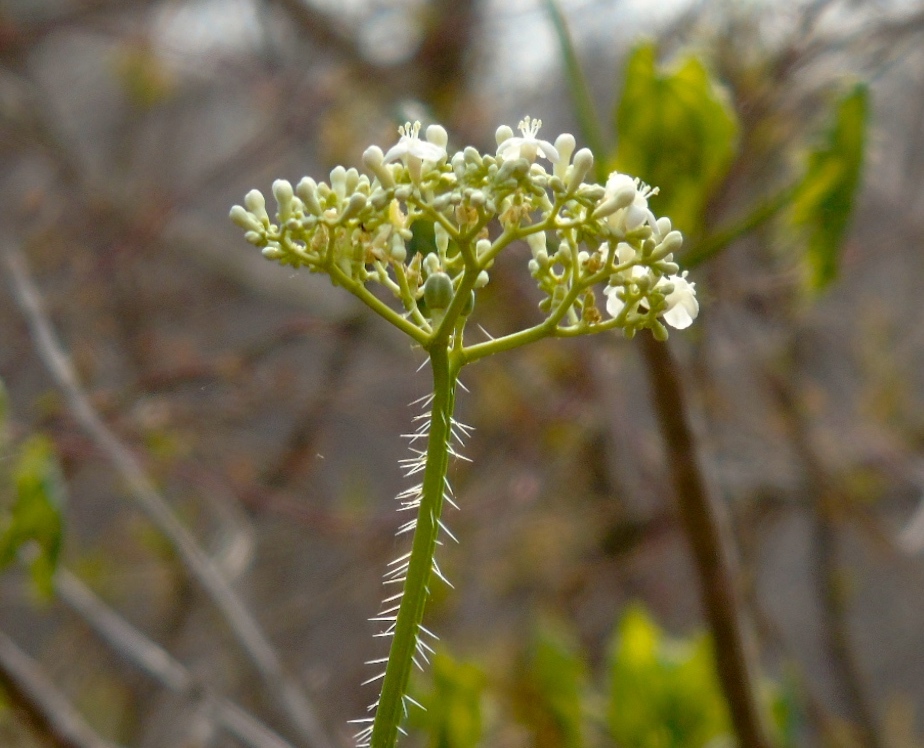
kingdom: Plantae
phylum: Tracheophyta
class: Magnoliopsida
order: Malpighiales
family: Euphorbiaceae
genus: Cnidoscolus
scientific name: Cnidoscolus aconitifolius
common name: Cabbage-star
